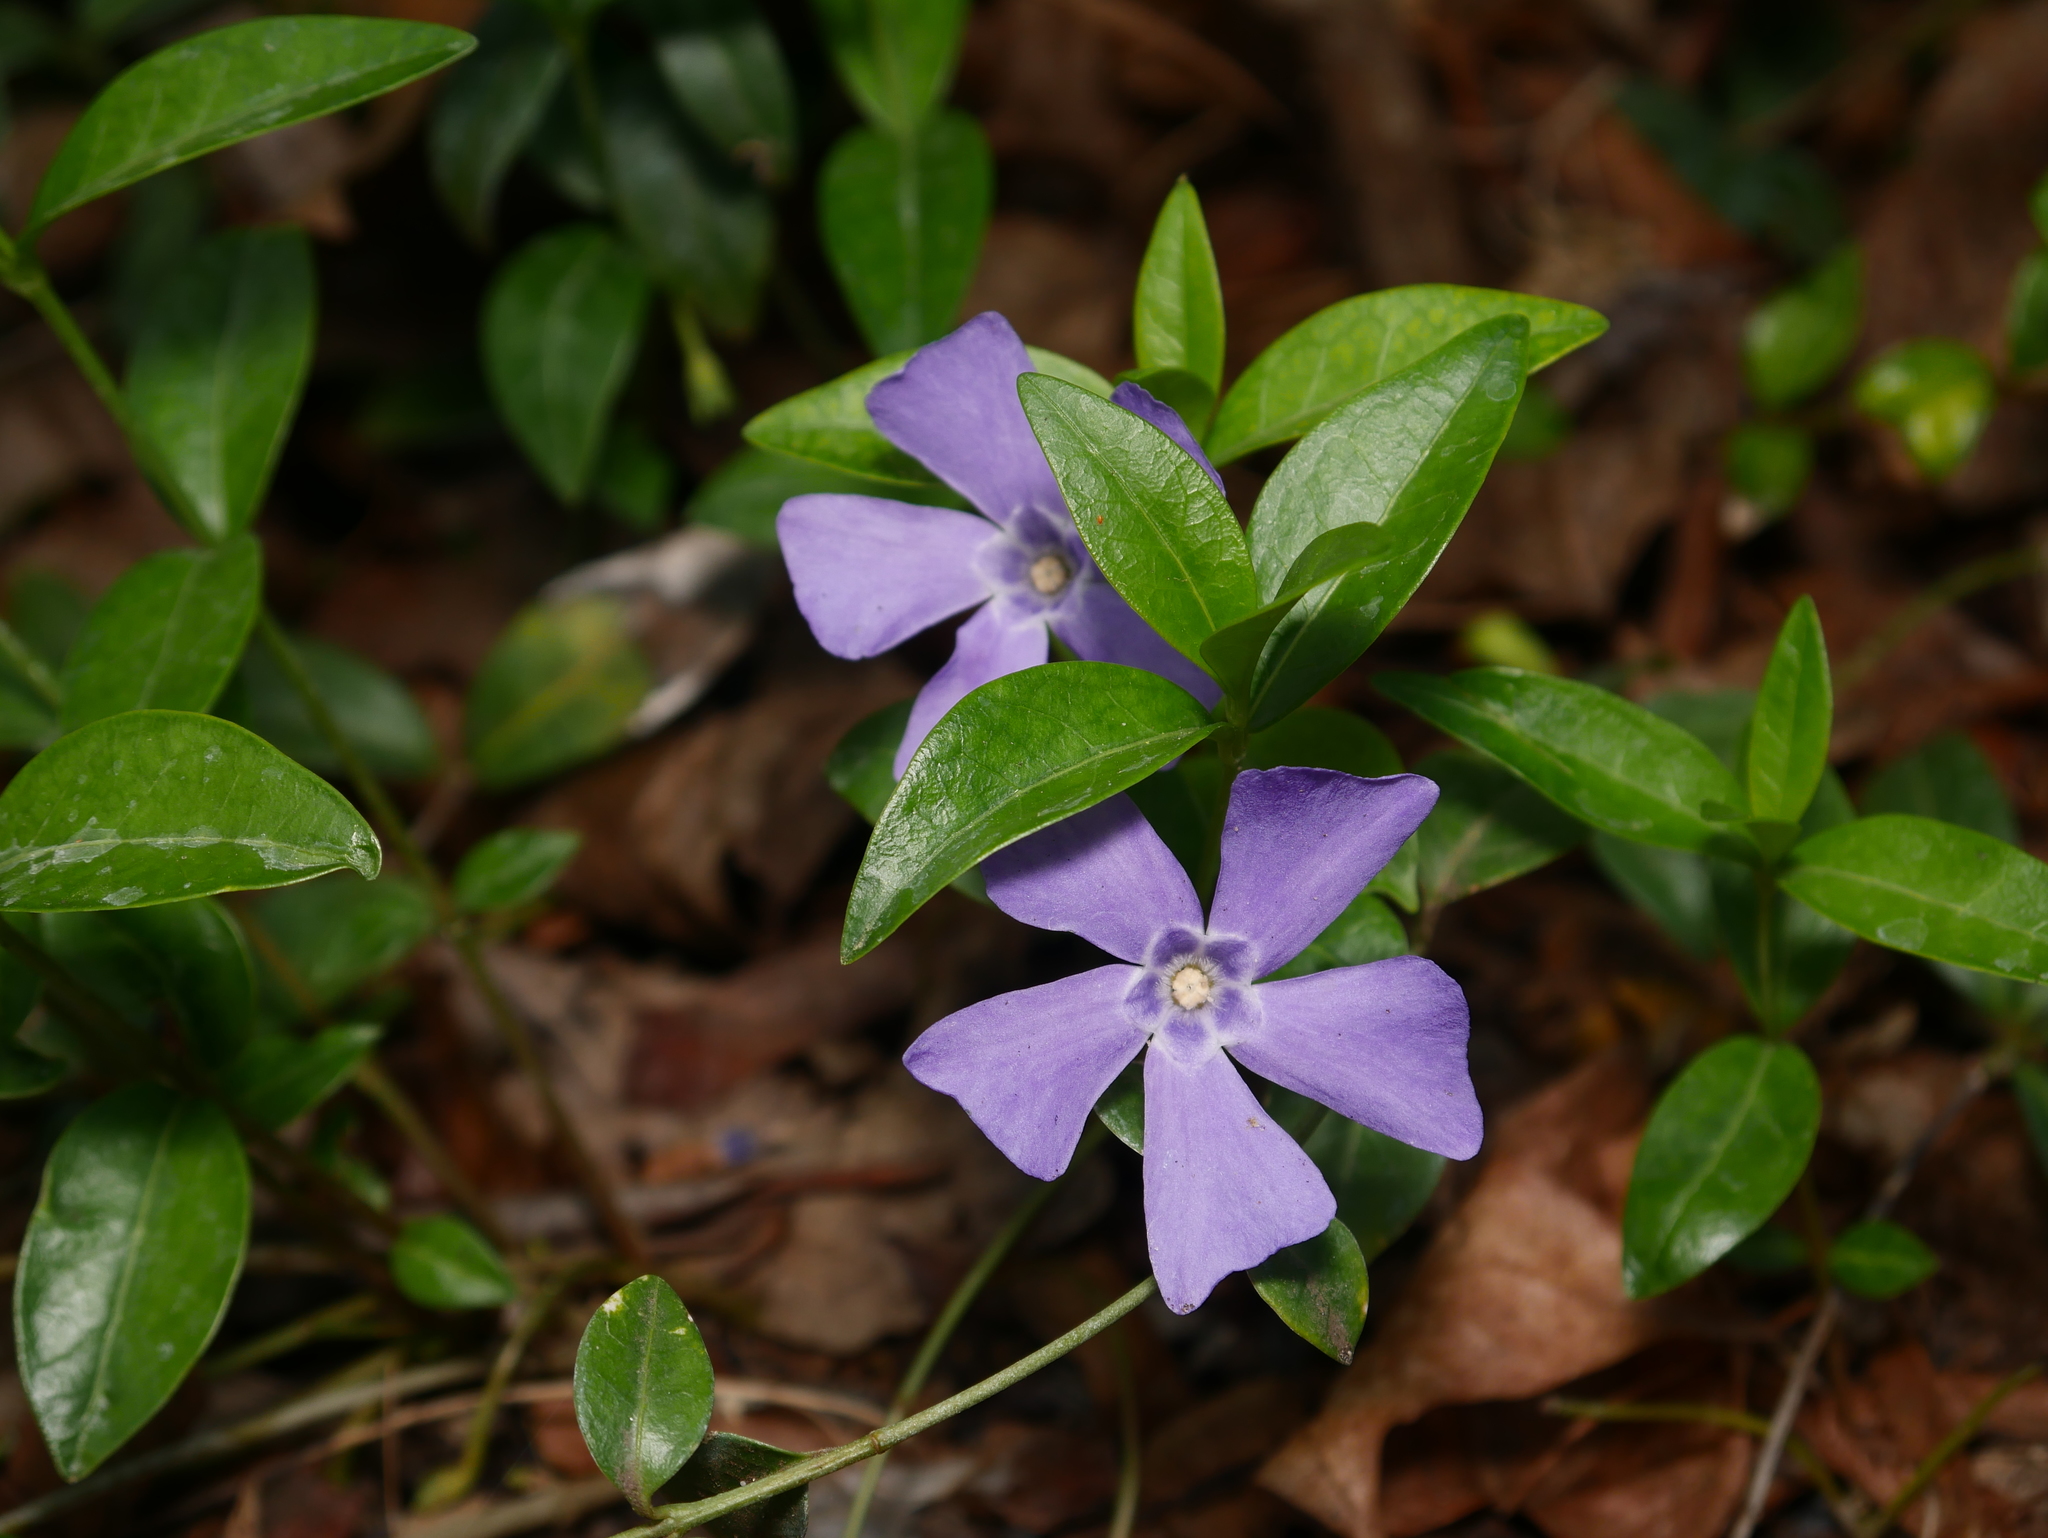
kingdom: Plantae
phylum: Tracheophyta
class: Magnoliopsida
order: Gentianales
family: Apocynaceae
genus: Vinca
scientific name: Vinca minor
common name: Lesser periwinkle
